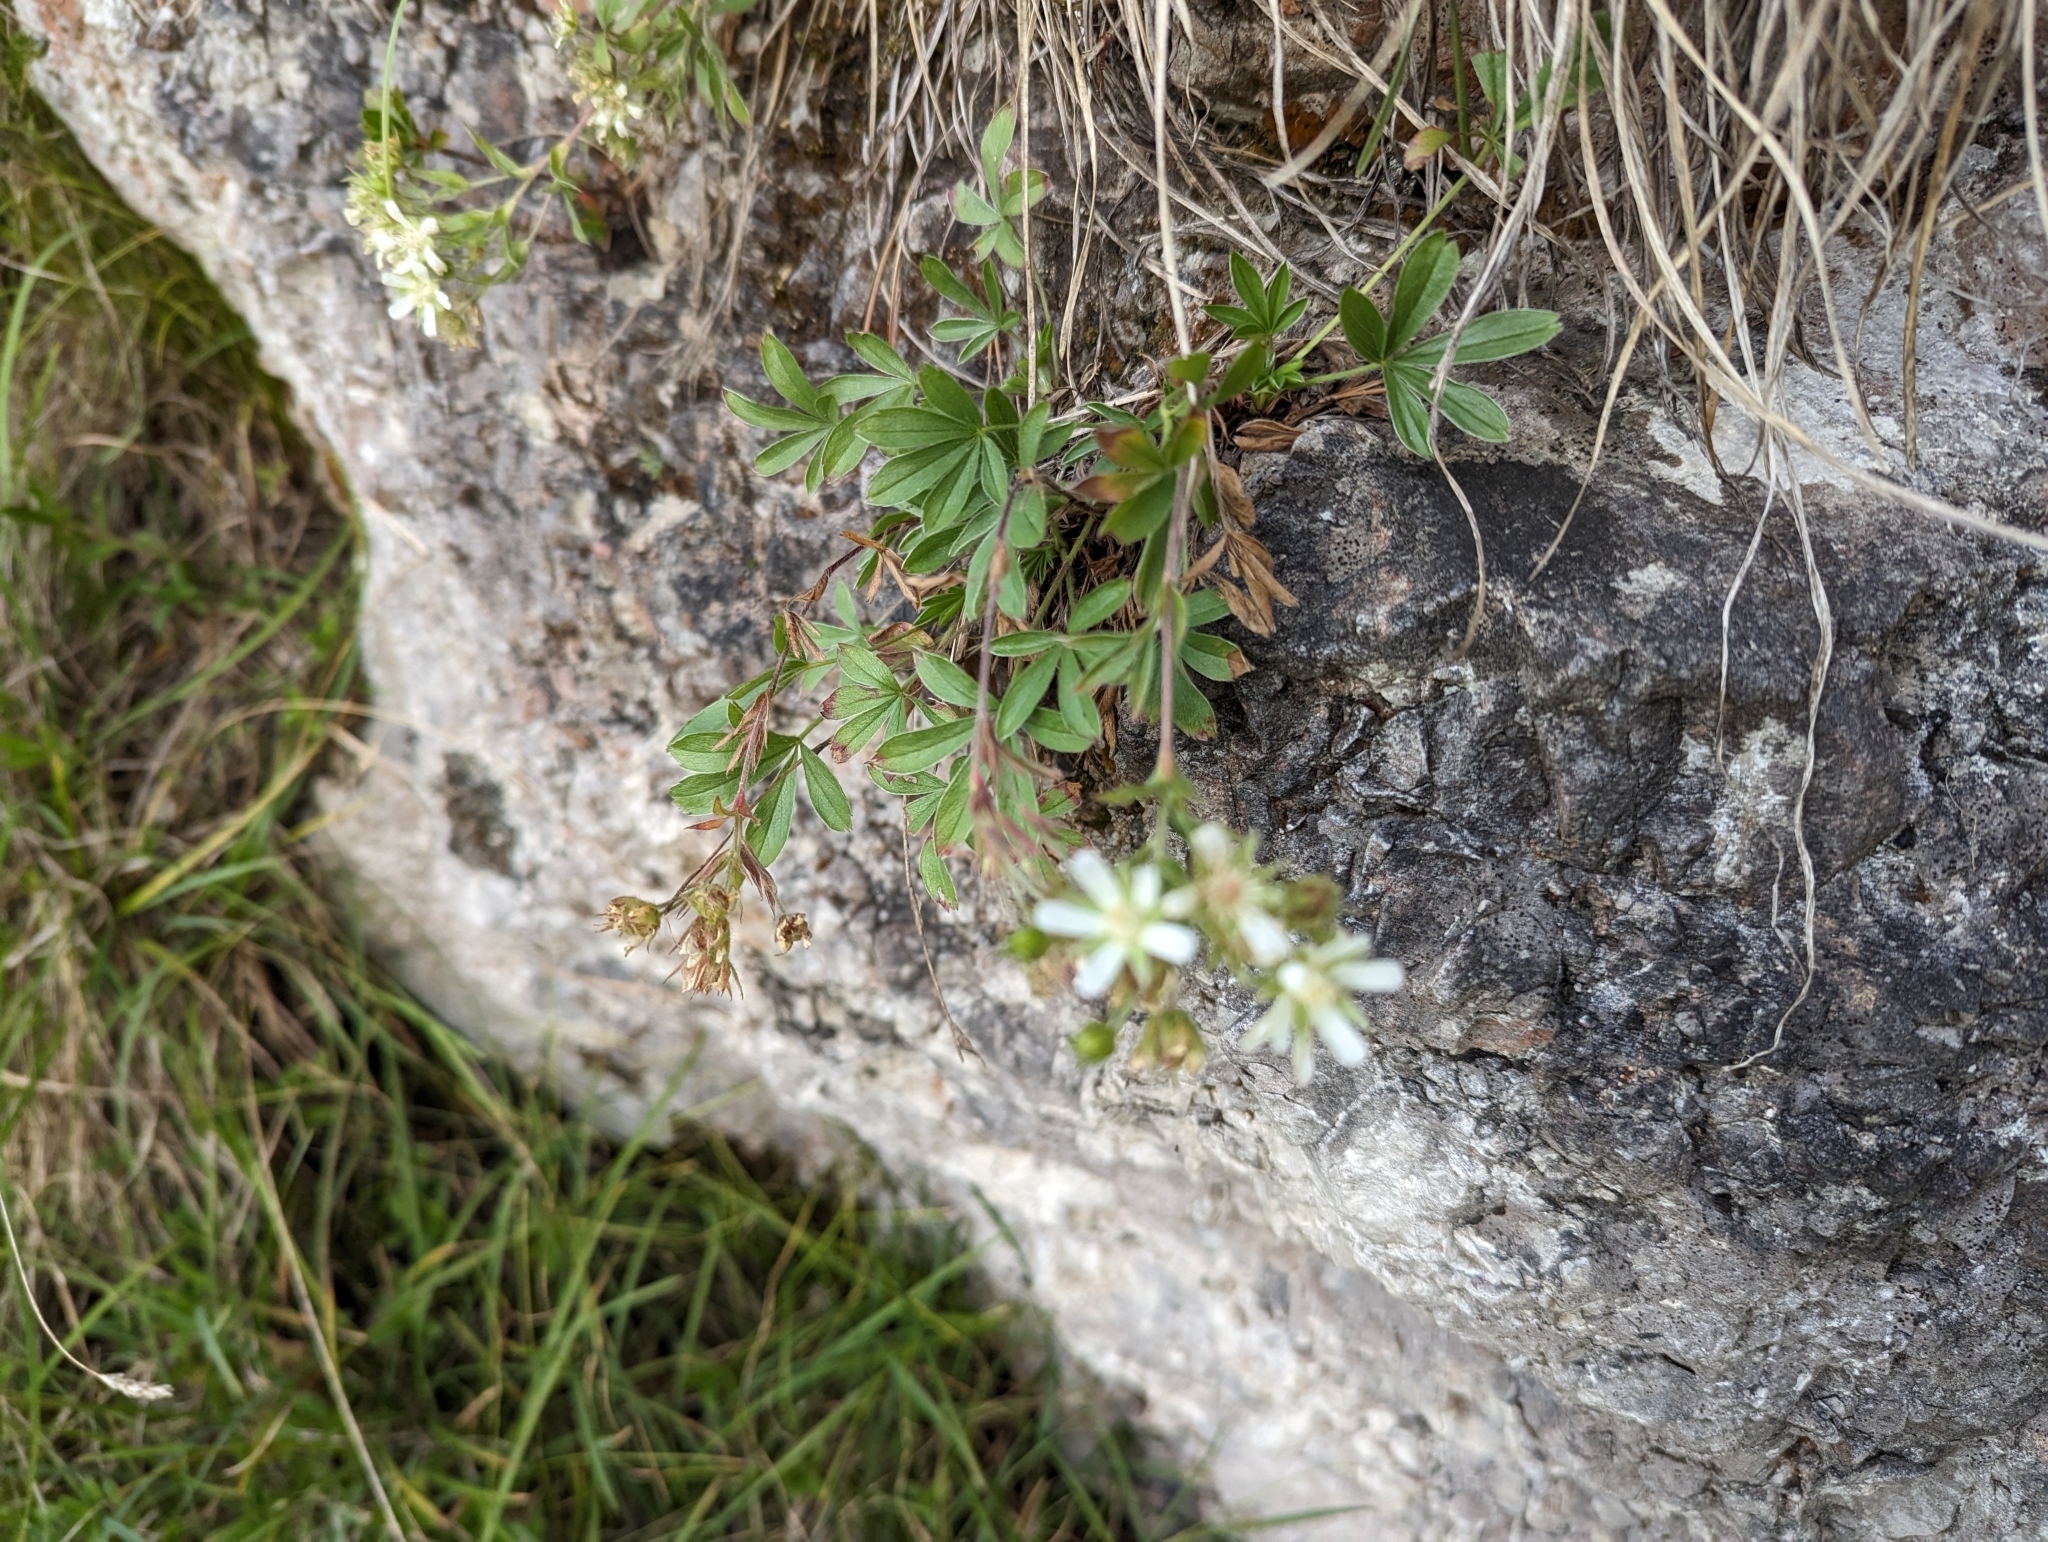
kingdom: Plantae
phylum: Tracheophyta
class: Magnoliopsida
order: Rosales
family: Rosaceae
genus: Potentilla
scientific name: Potentilla caulescens
